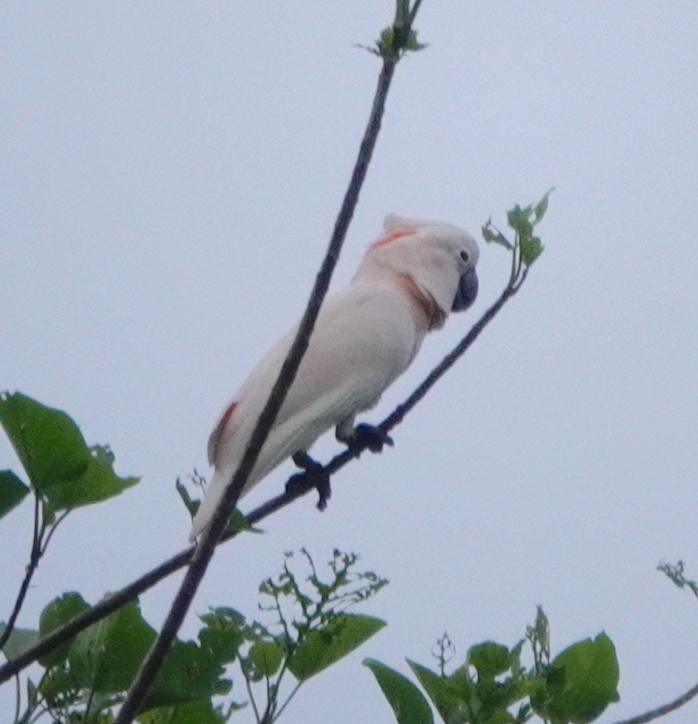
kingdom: Animalia
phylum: Chordata
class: Aves
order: Psittaciformes
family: Psittacidae
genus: Cacatua
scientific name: Cacatua moluccensis
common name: Salmon-crested cockatoo
